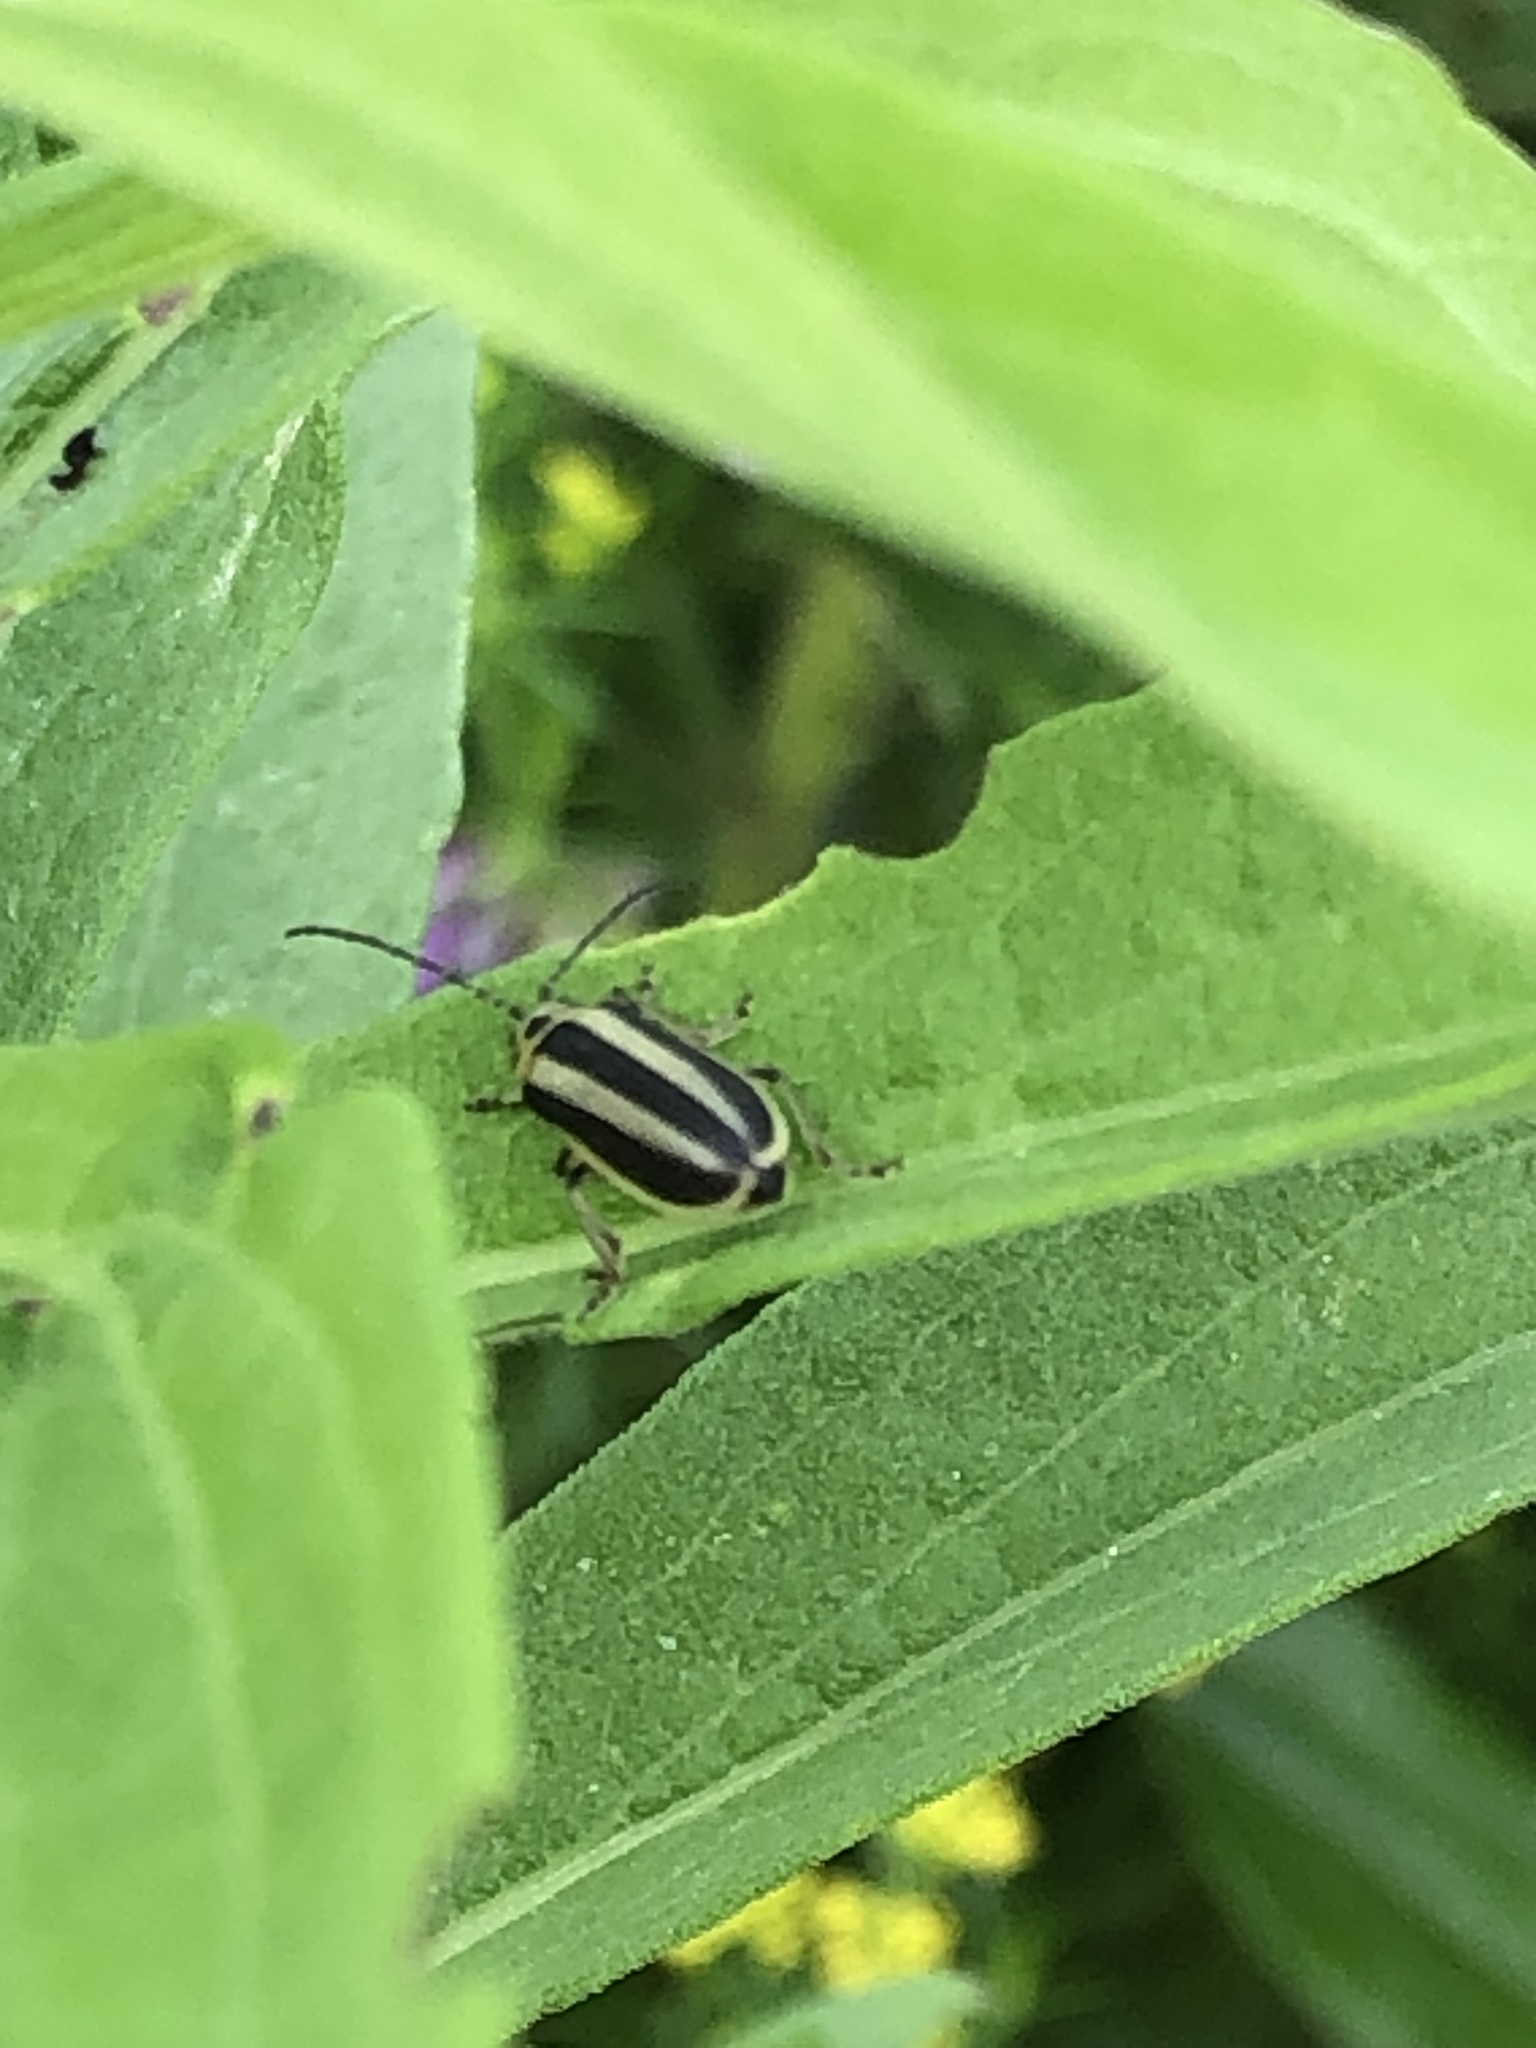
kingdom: Animalia
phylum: Arthropoda
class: Insecta
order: Coleoptera
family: Chrysomelidae
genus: Trirhabda
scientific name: Trirhabda canadensis
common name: Goldenrod leaf beetle
